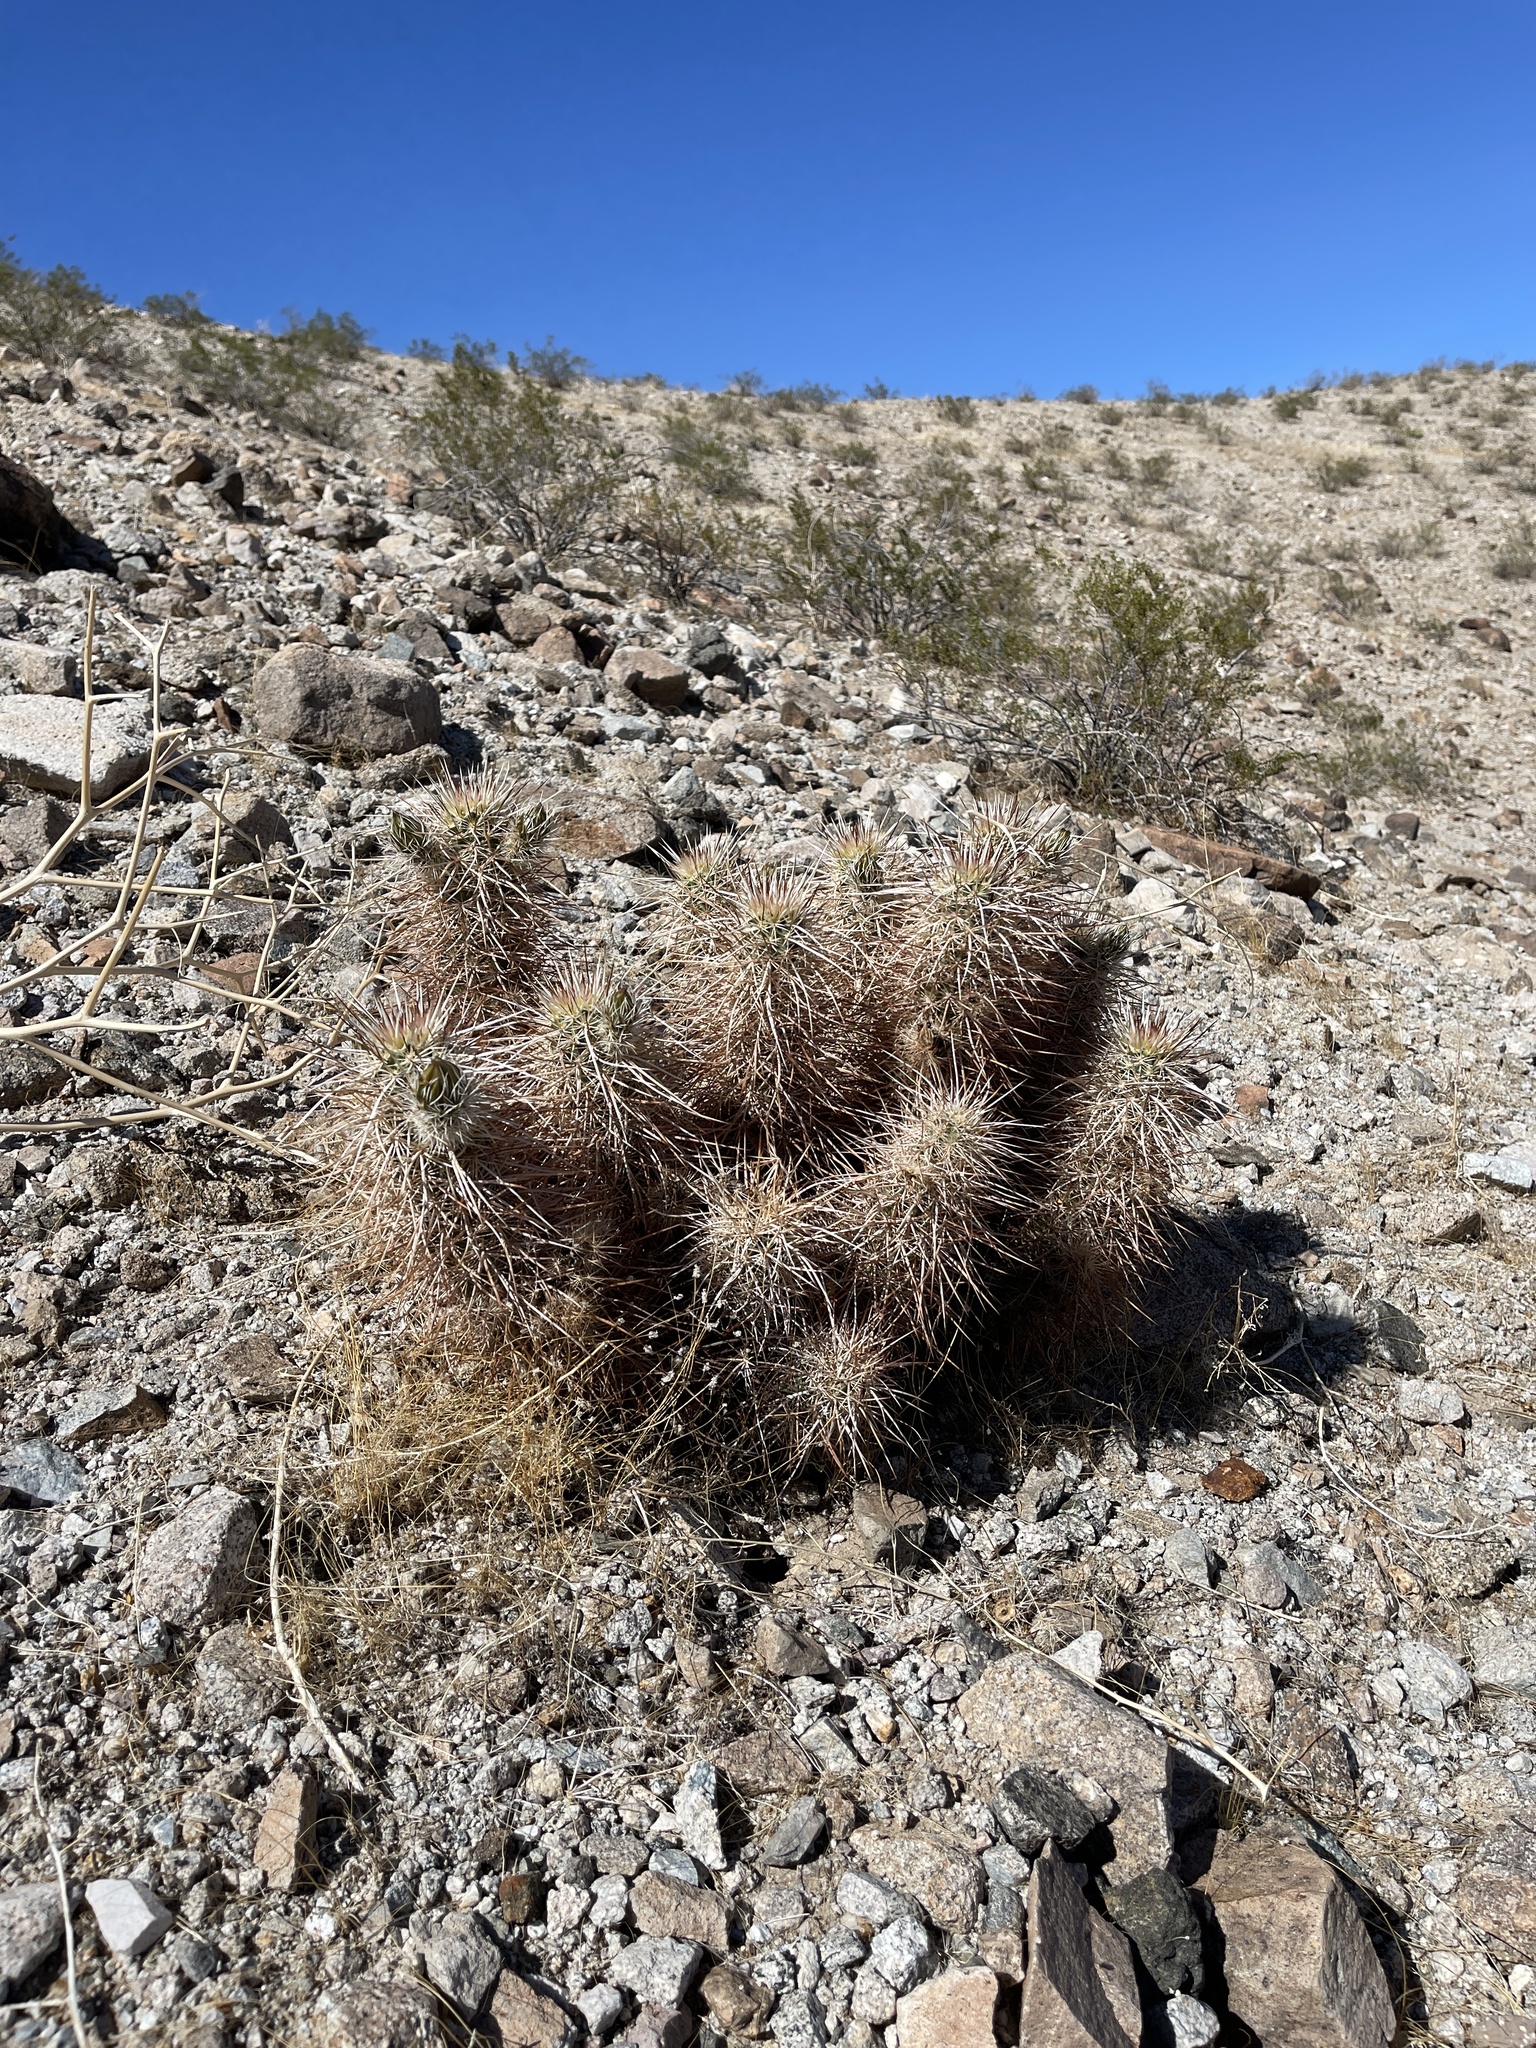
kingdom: Plantae
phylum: Tracheophyta
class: Magnoliopsida
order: Caryophyllales
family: Cactaceae
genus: Echinocereus
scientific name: Echinocereus engelmannii
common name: Engelmann's hedgehog cactus
